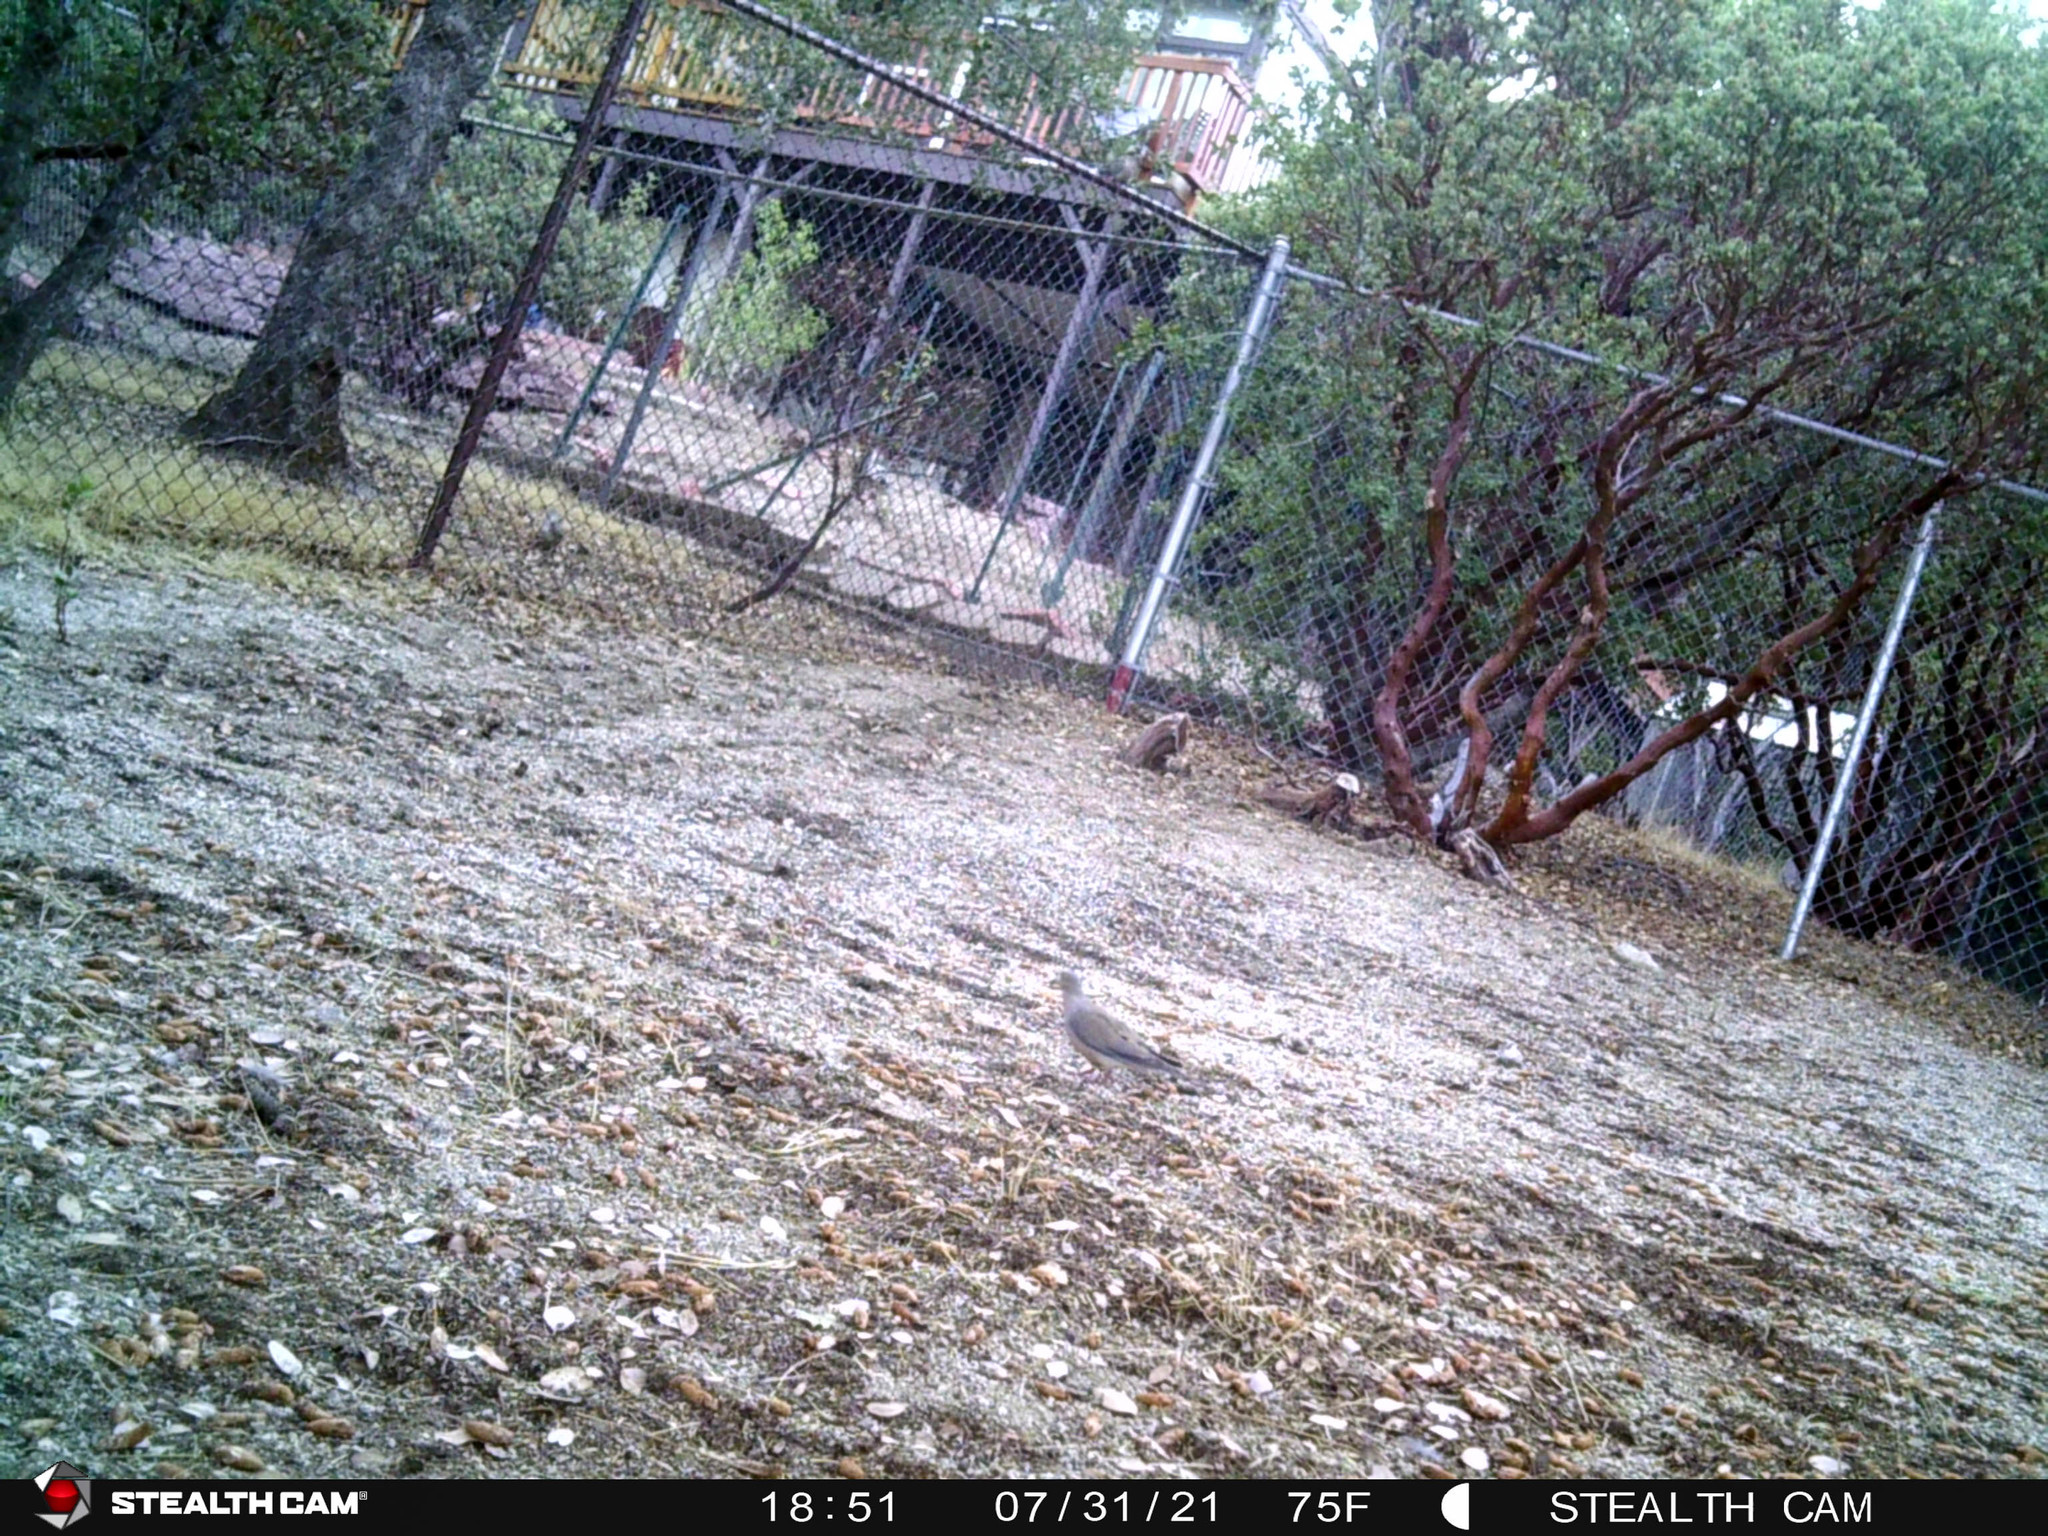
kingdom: Animalia
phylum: Chordata
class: Aves
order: Columbiformes
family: Columbidae
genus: Zenaida
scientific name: Zenaida macroura
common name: Mourning dove
